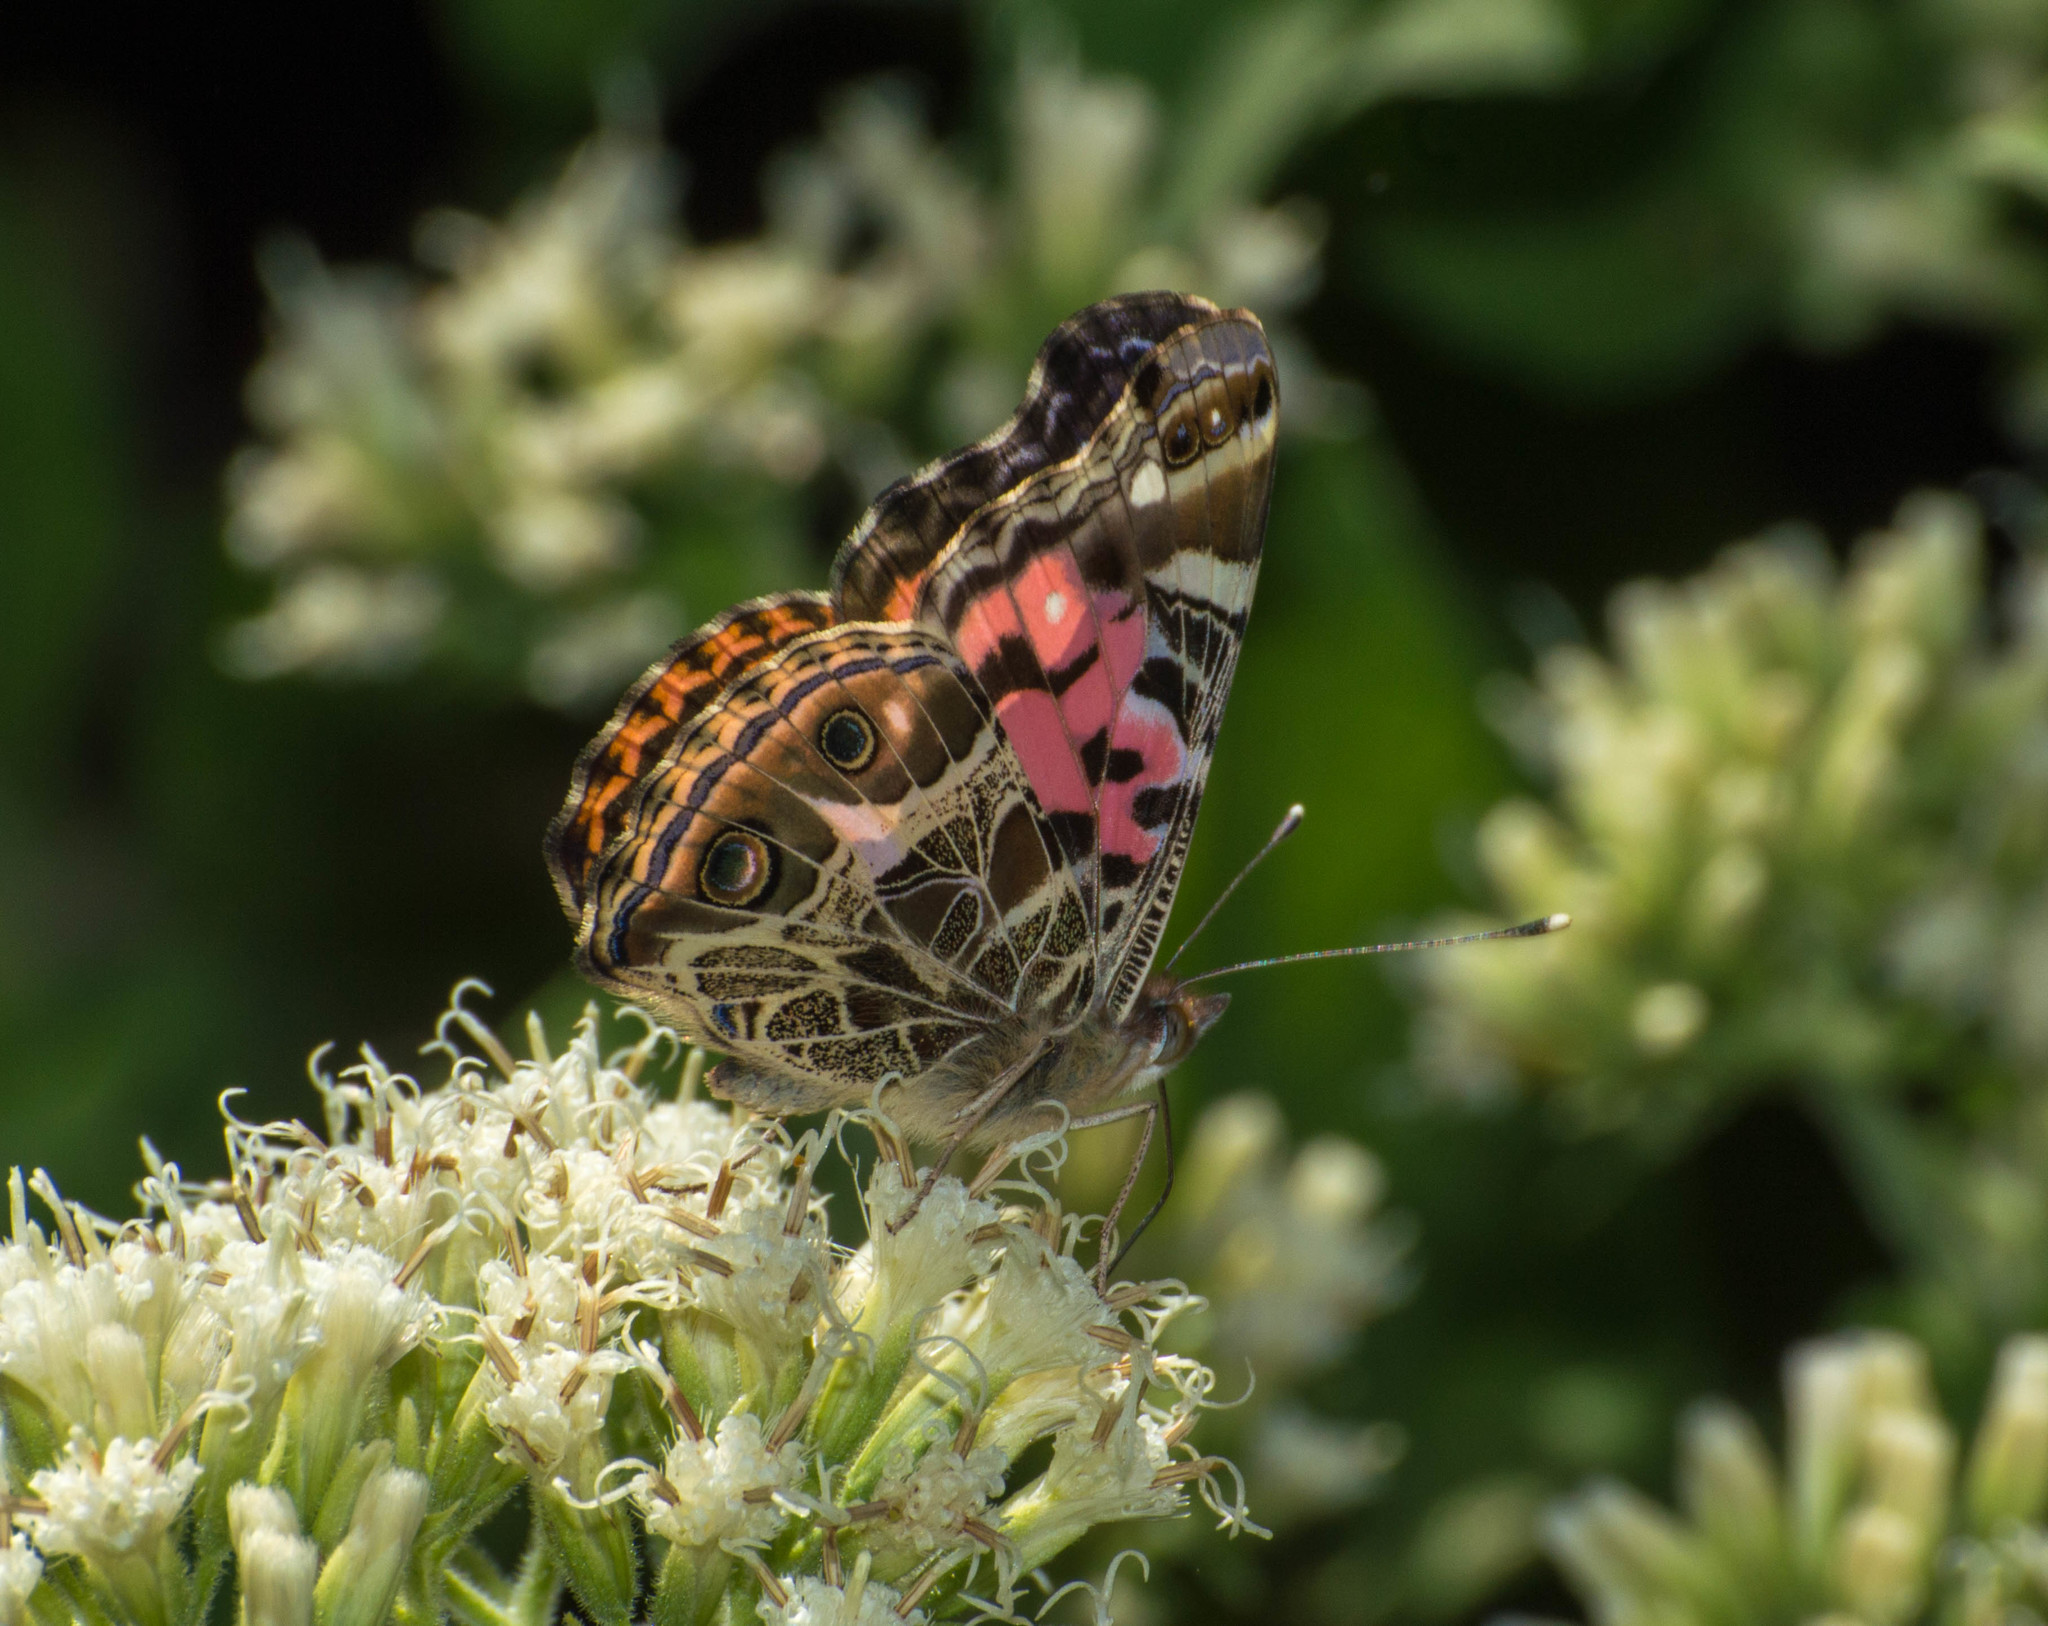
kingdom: Animalia
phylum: Arthropoda
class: Insecta
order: Lepidoptera
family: Nymphalidae
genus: Vanessa
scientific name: Vanessa braziliensis
